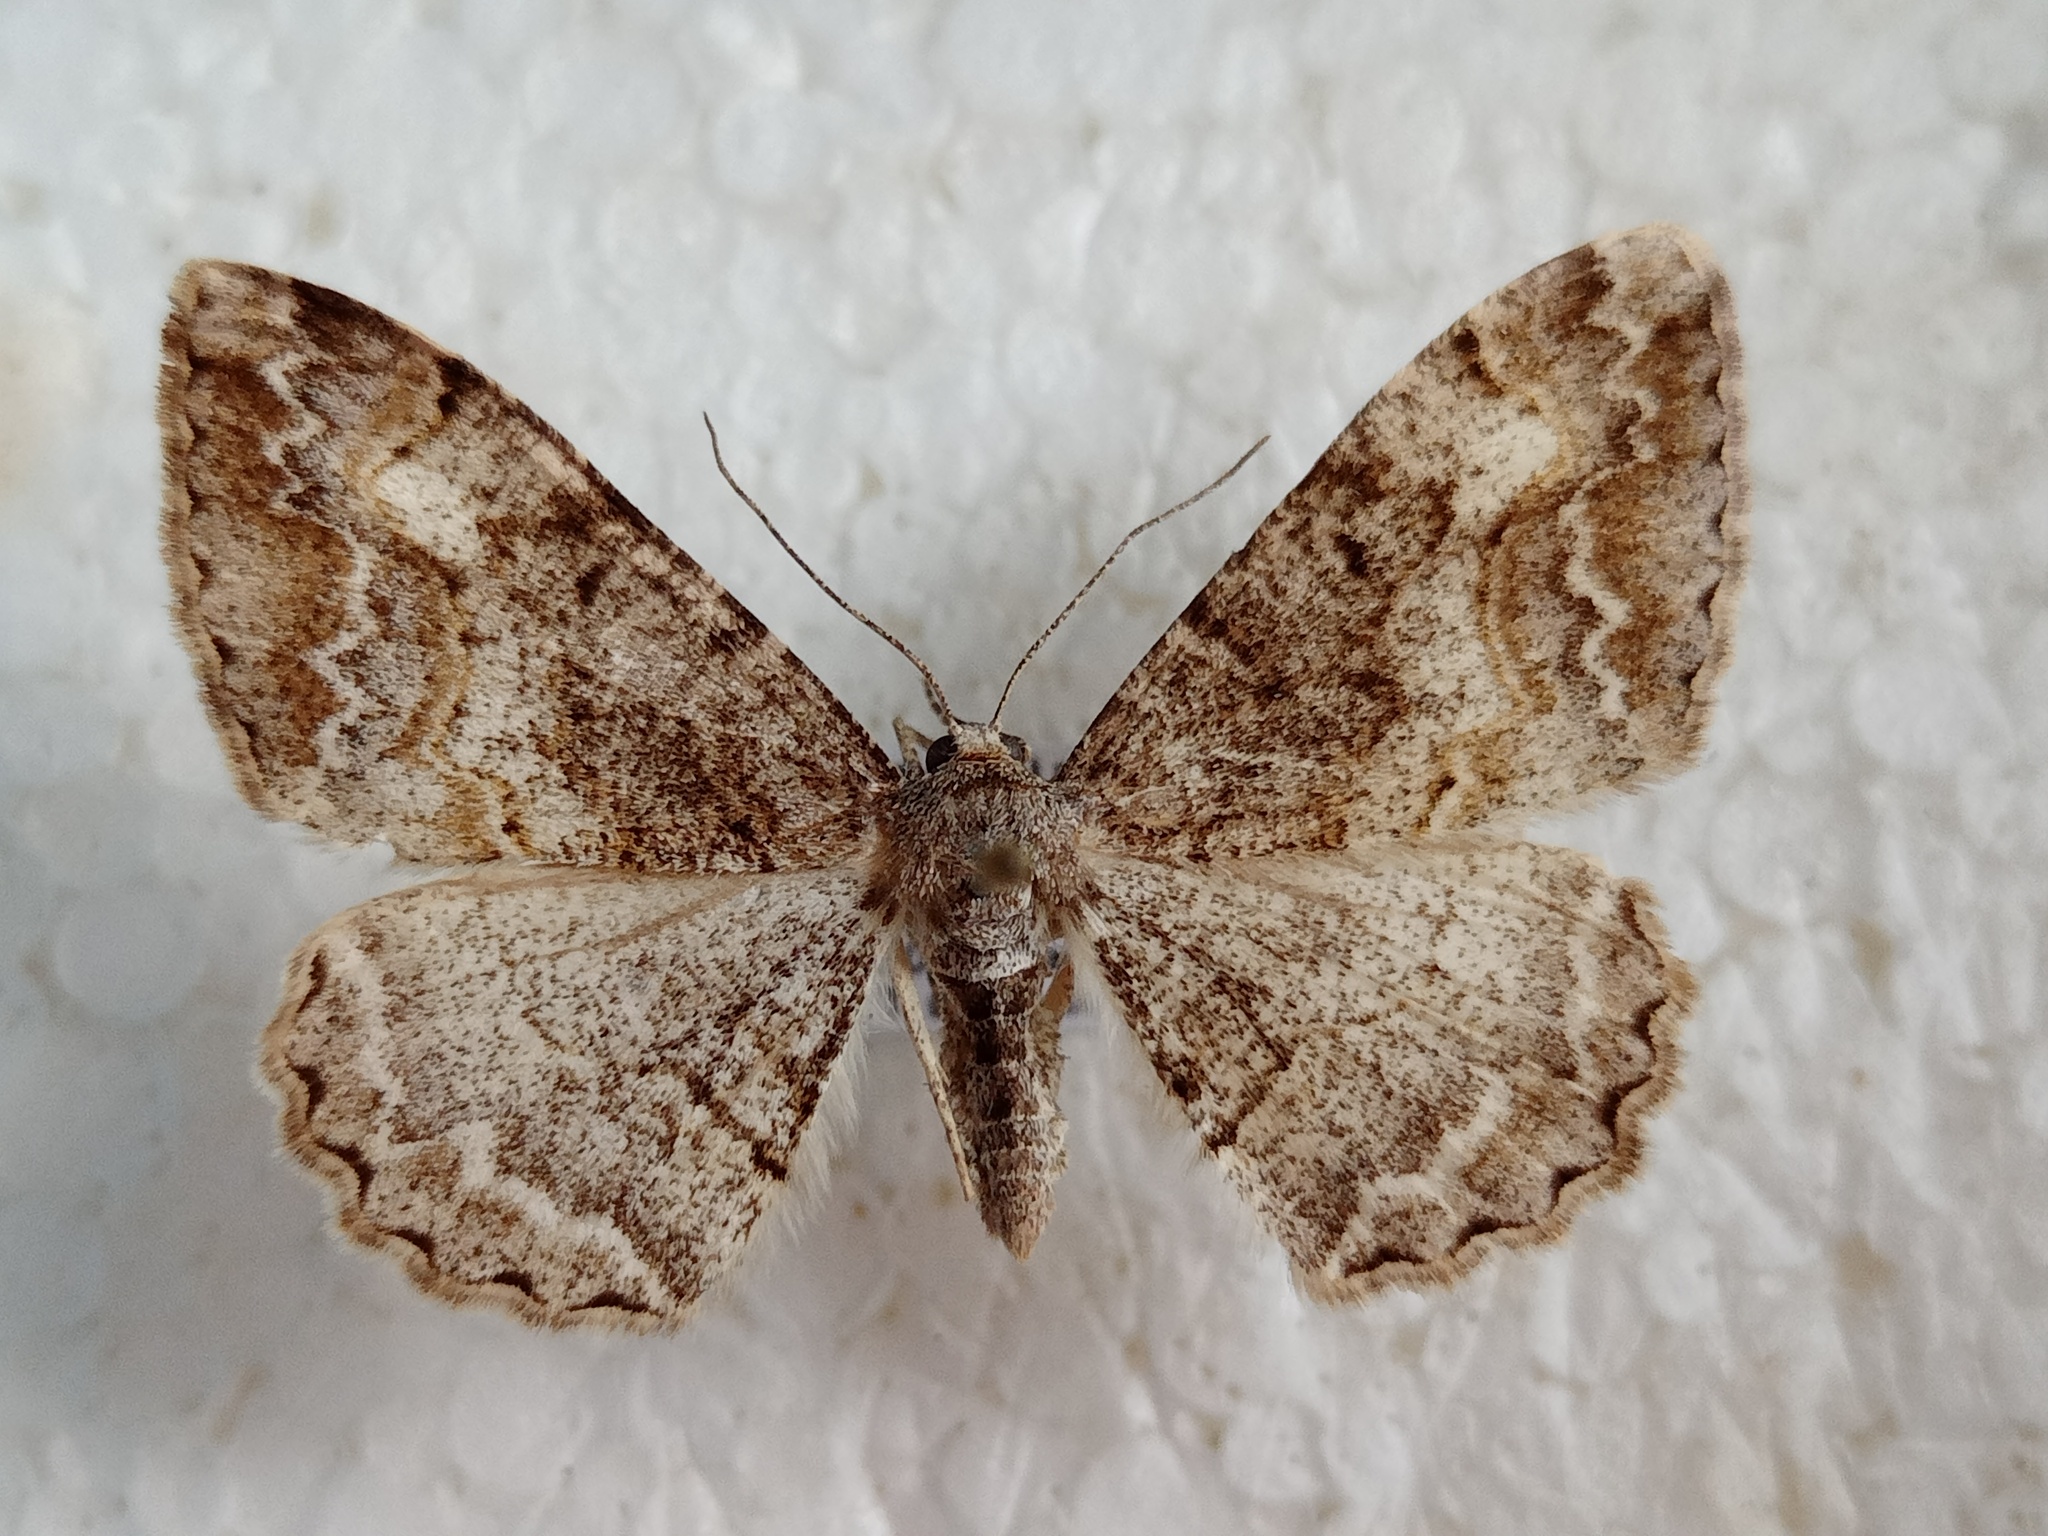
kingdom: Animalia
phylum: Arthropoda
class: Insecta
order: Lepidoptera
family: Geometridae
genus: Alcis
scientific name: Alcis repandata
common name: Mottled beauty
